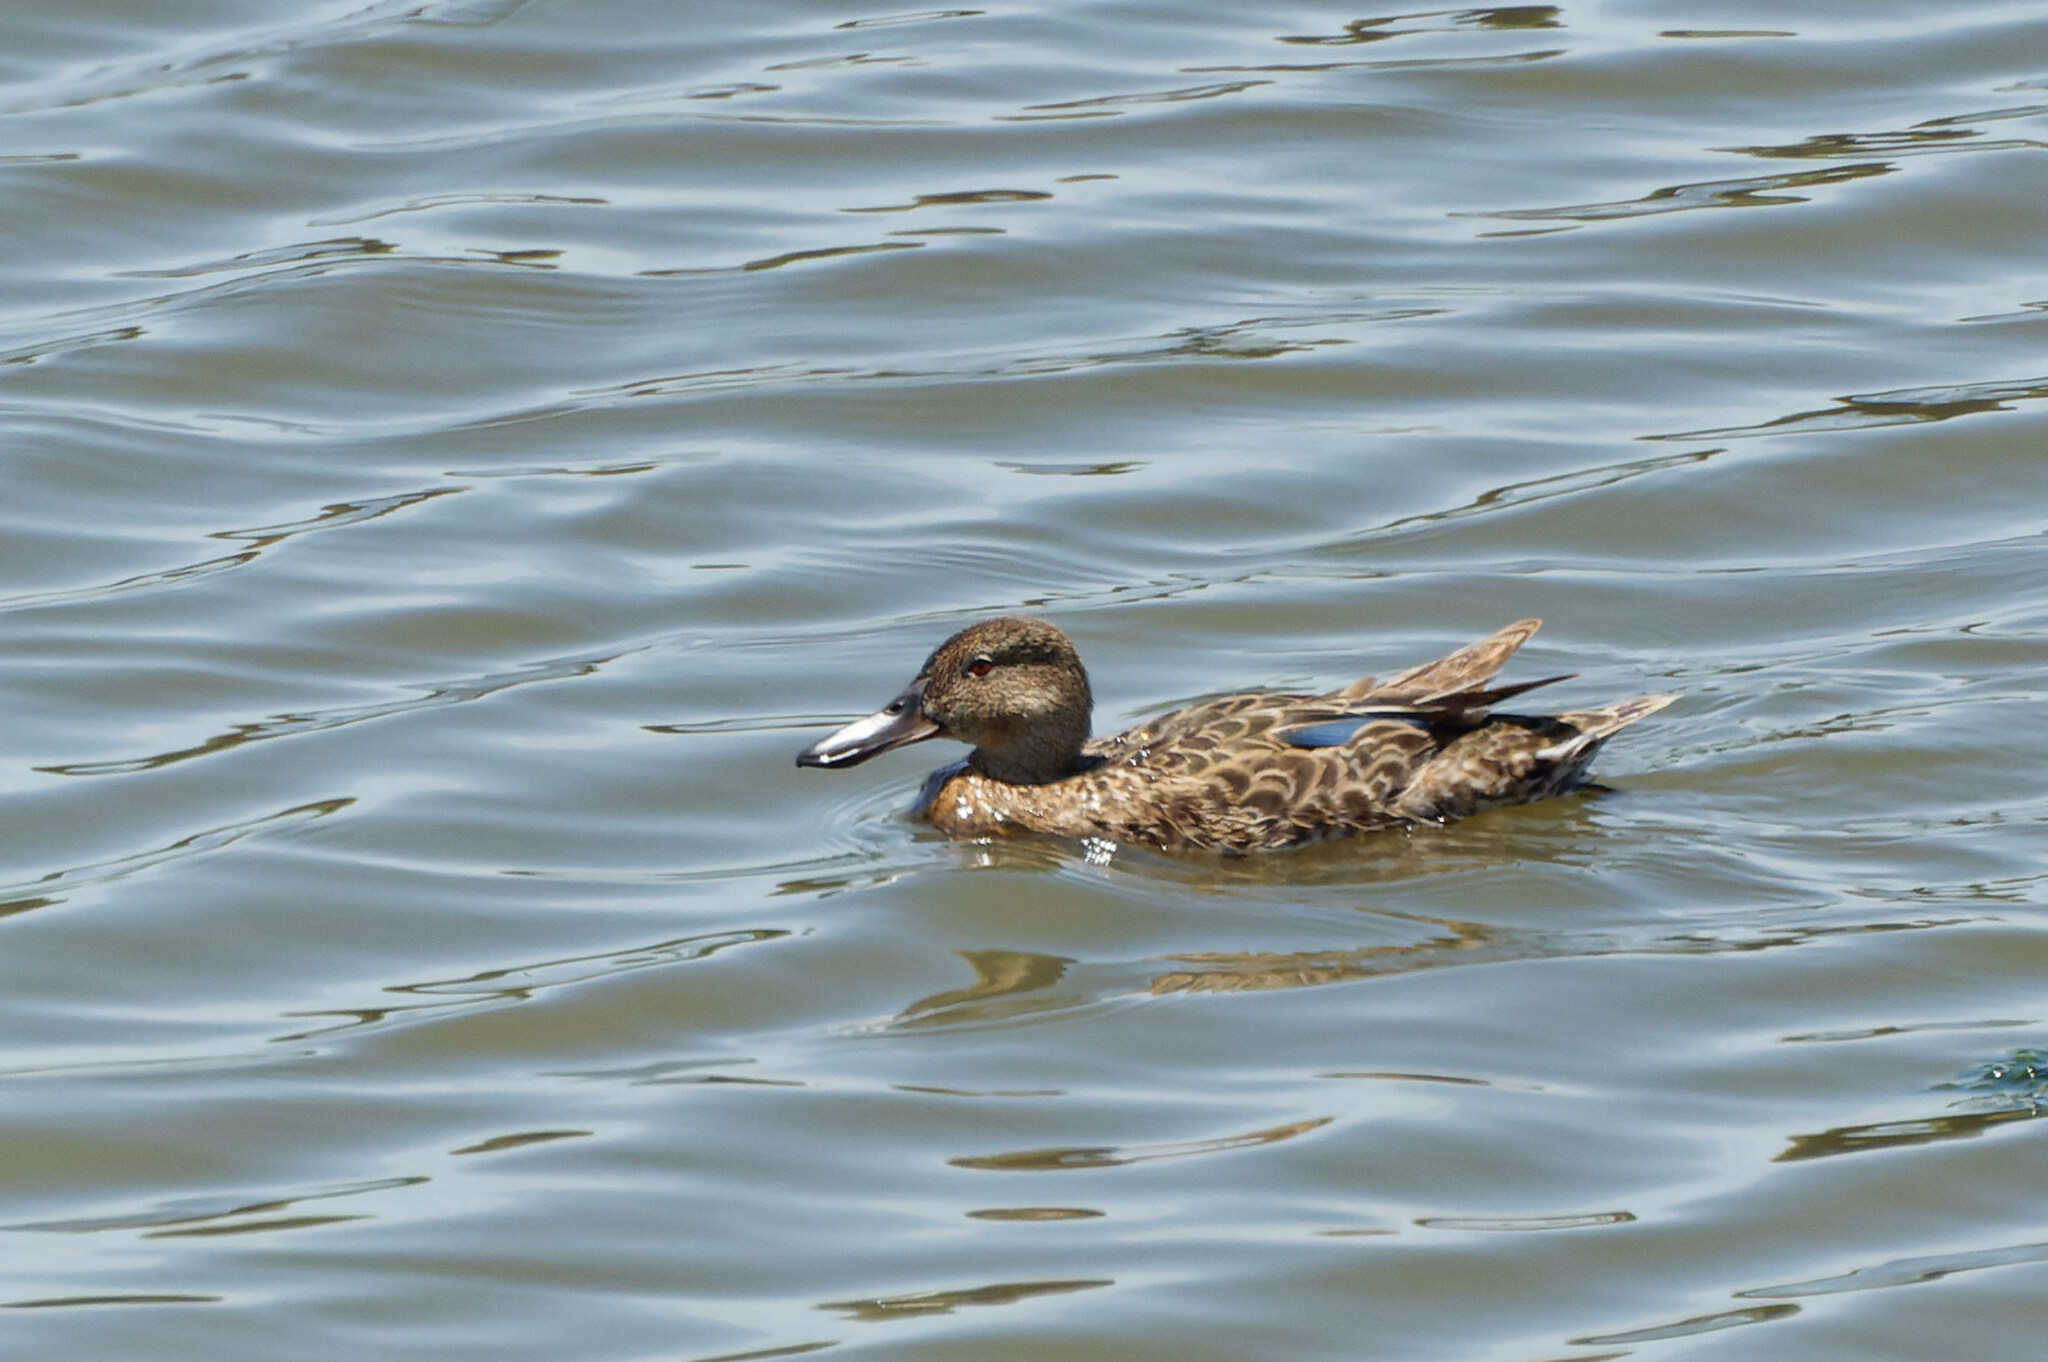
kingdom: Animalia
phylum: Chordata
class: Aves
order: Anseriformes
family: Anatidae
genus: Spatula
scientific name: Spatula cyanoptera
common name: Cinnamon teal
